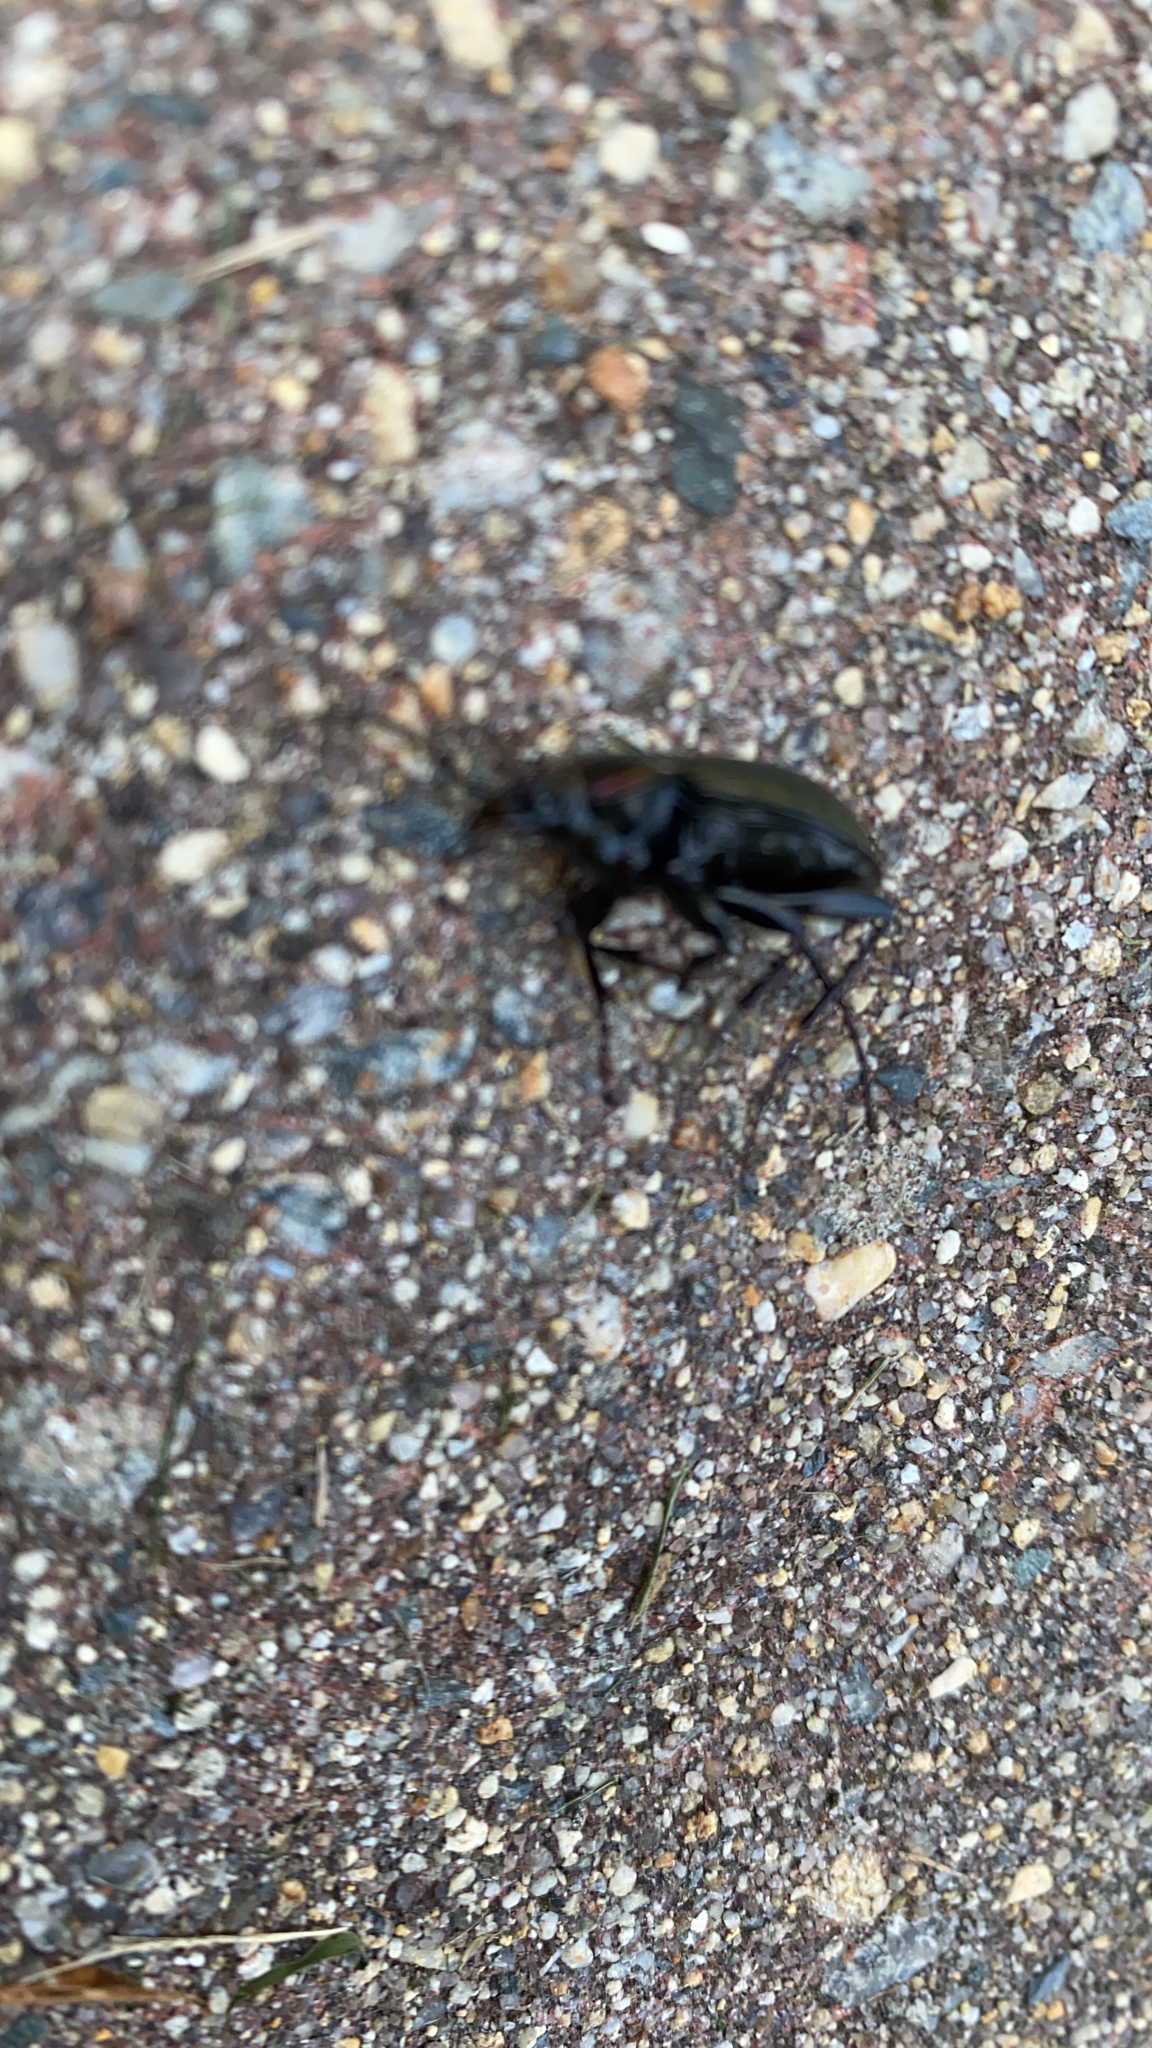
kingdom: Animalia
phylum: Arthropoda
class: Insecta
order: Coleoptera
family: Carabidae
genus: Carabus
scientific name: Carabus nemoralis
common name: European ground beetle
